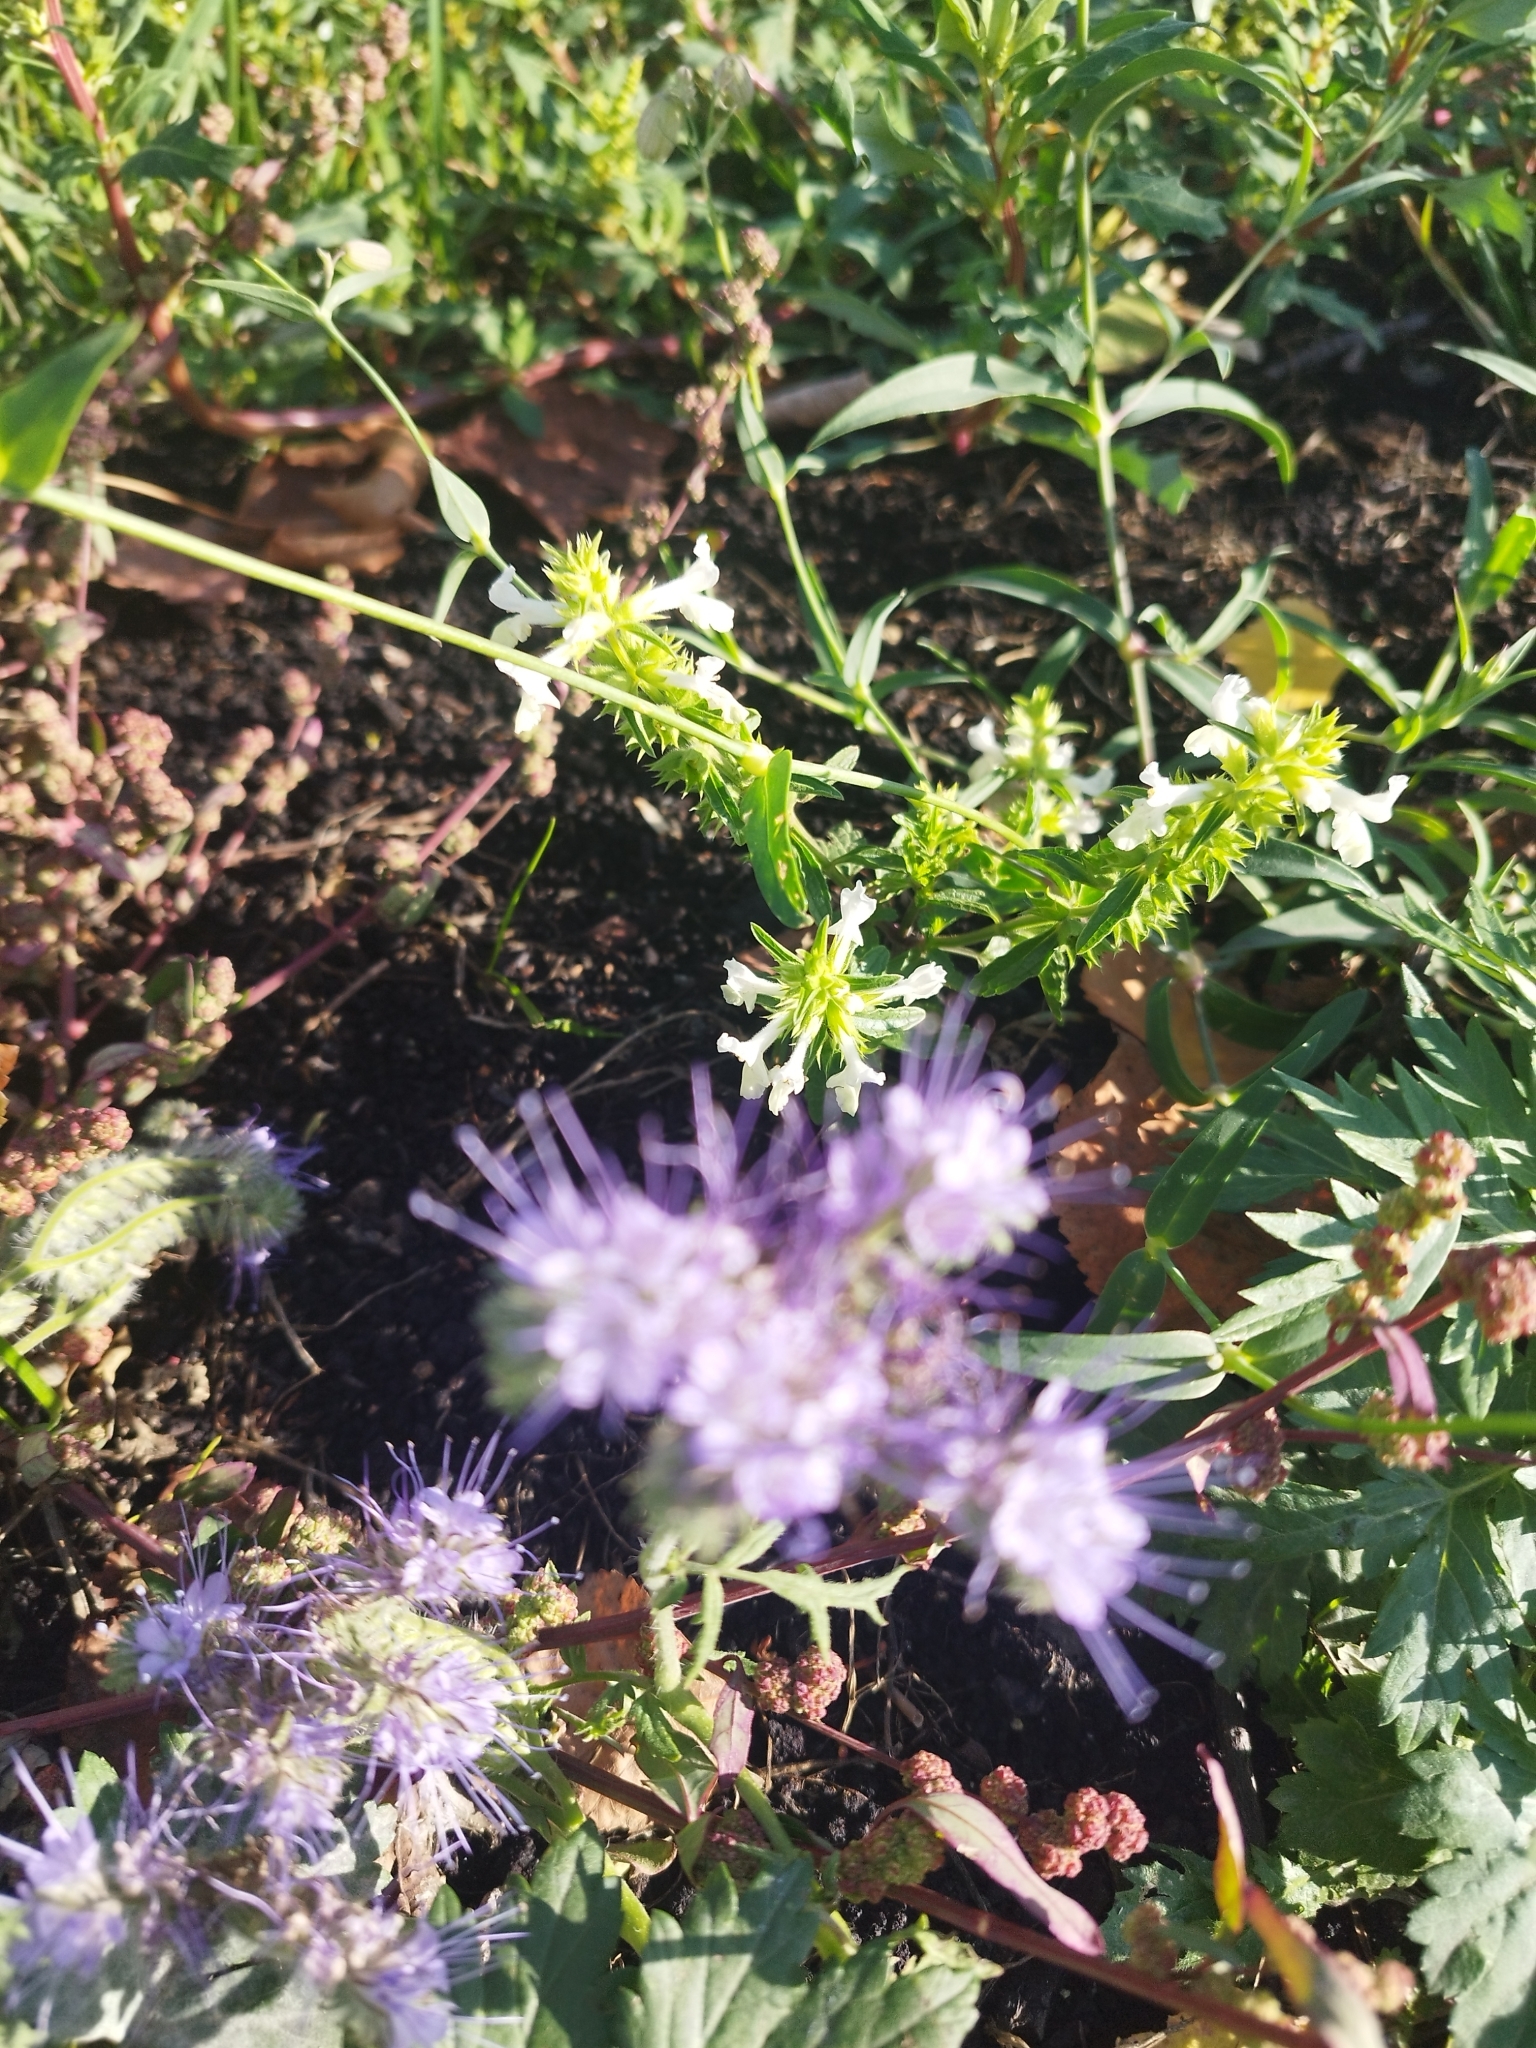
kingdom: Plantae
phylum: Tracheophyta
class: Magnoliopsida
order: Boraginales
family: Hydrophyllaceae
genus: Phacelia
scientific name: Phacelia tanacetifolia
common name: Phacelia
